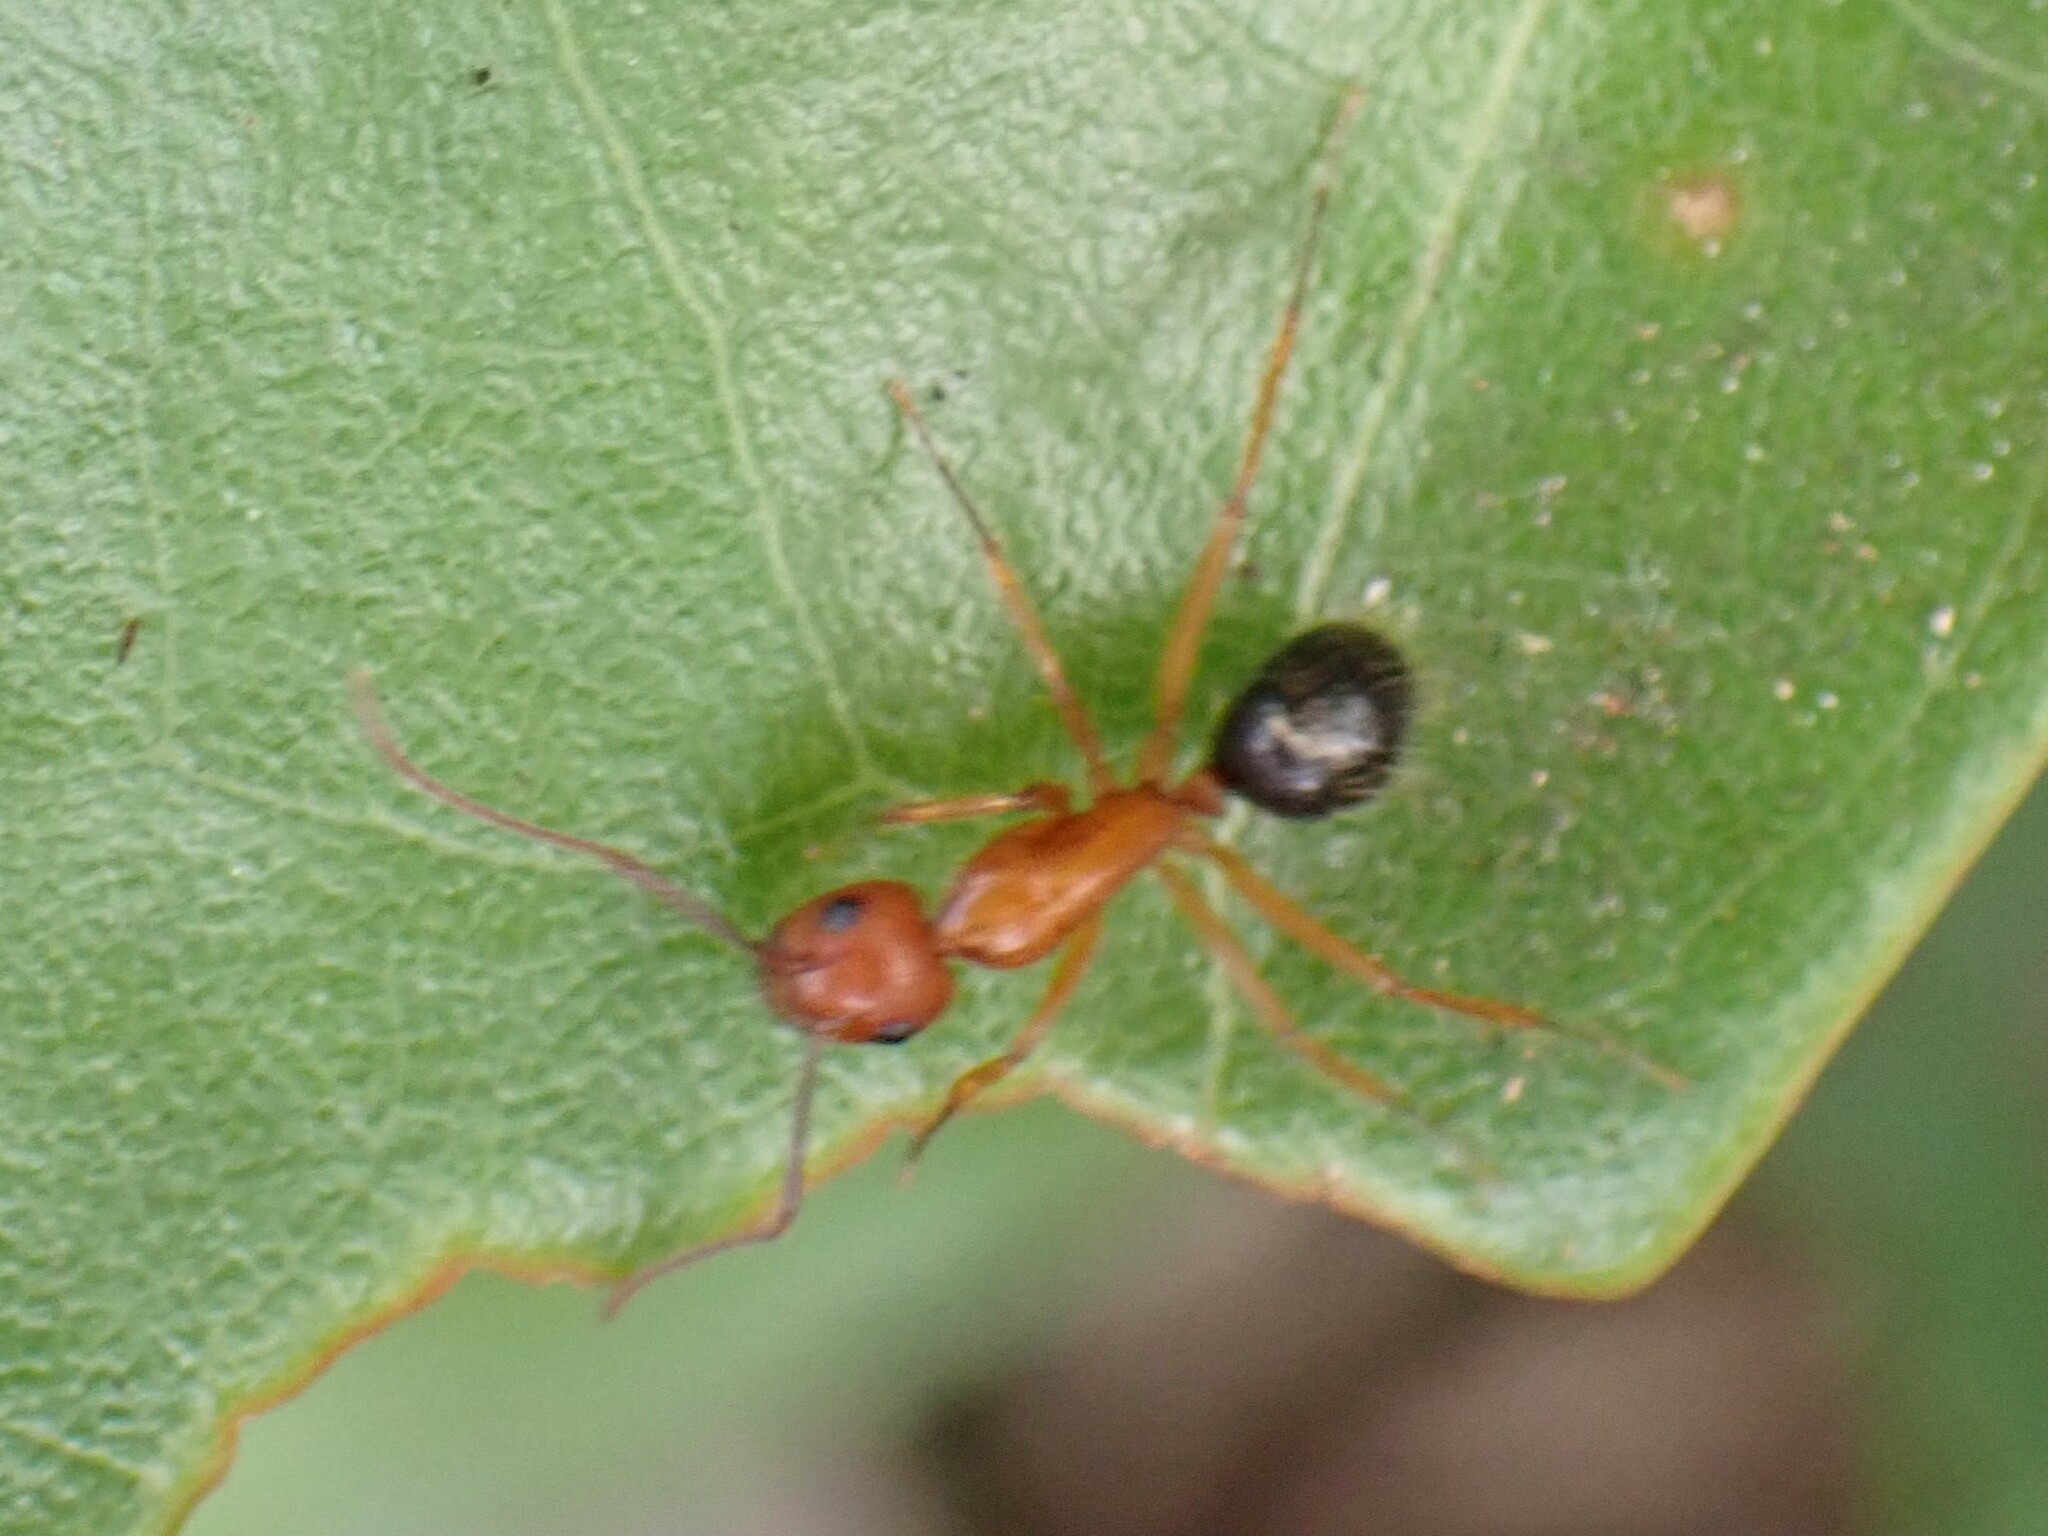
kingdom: Animalia
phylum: Arthropoda
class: Insecta
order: Hymenoptera
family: Formicidae
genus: Camponotus
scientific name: Camponotus floridanus
